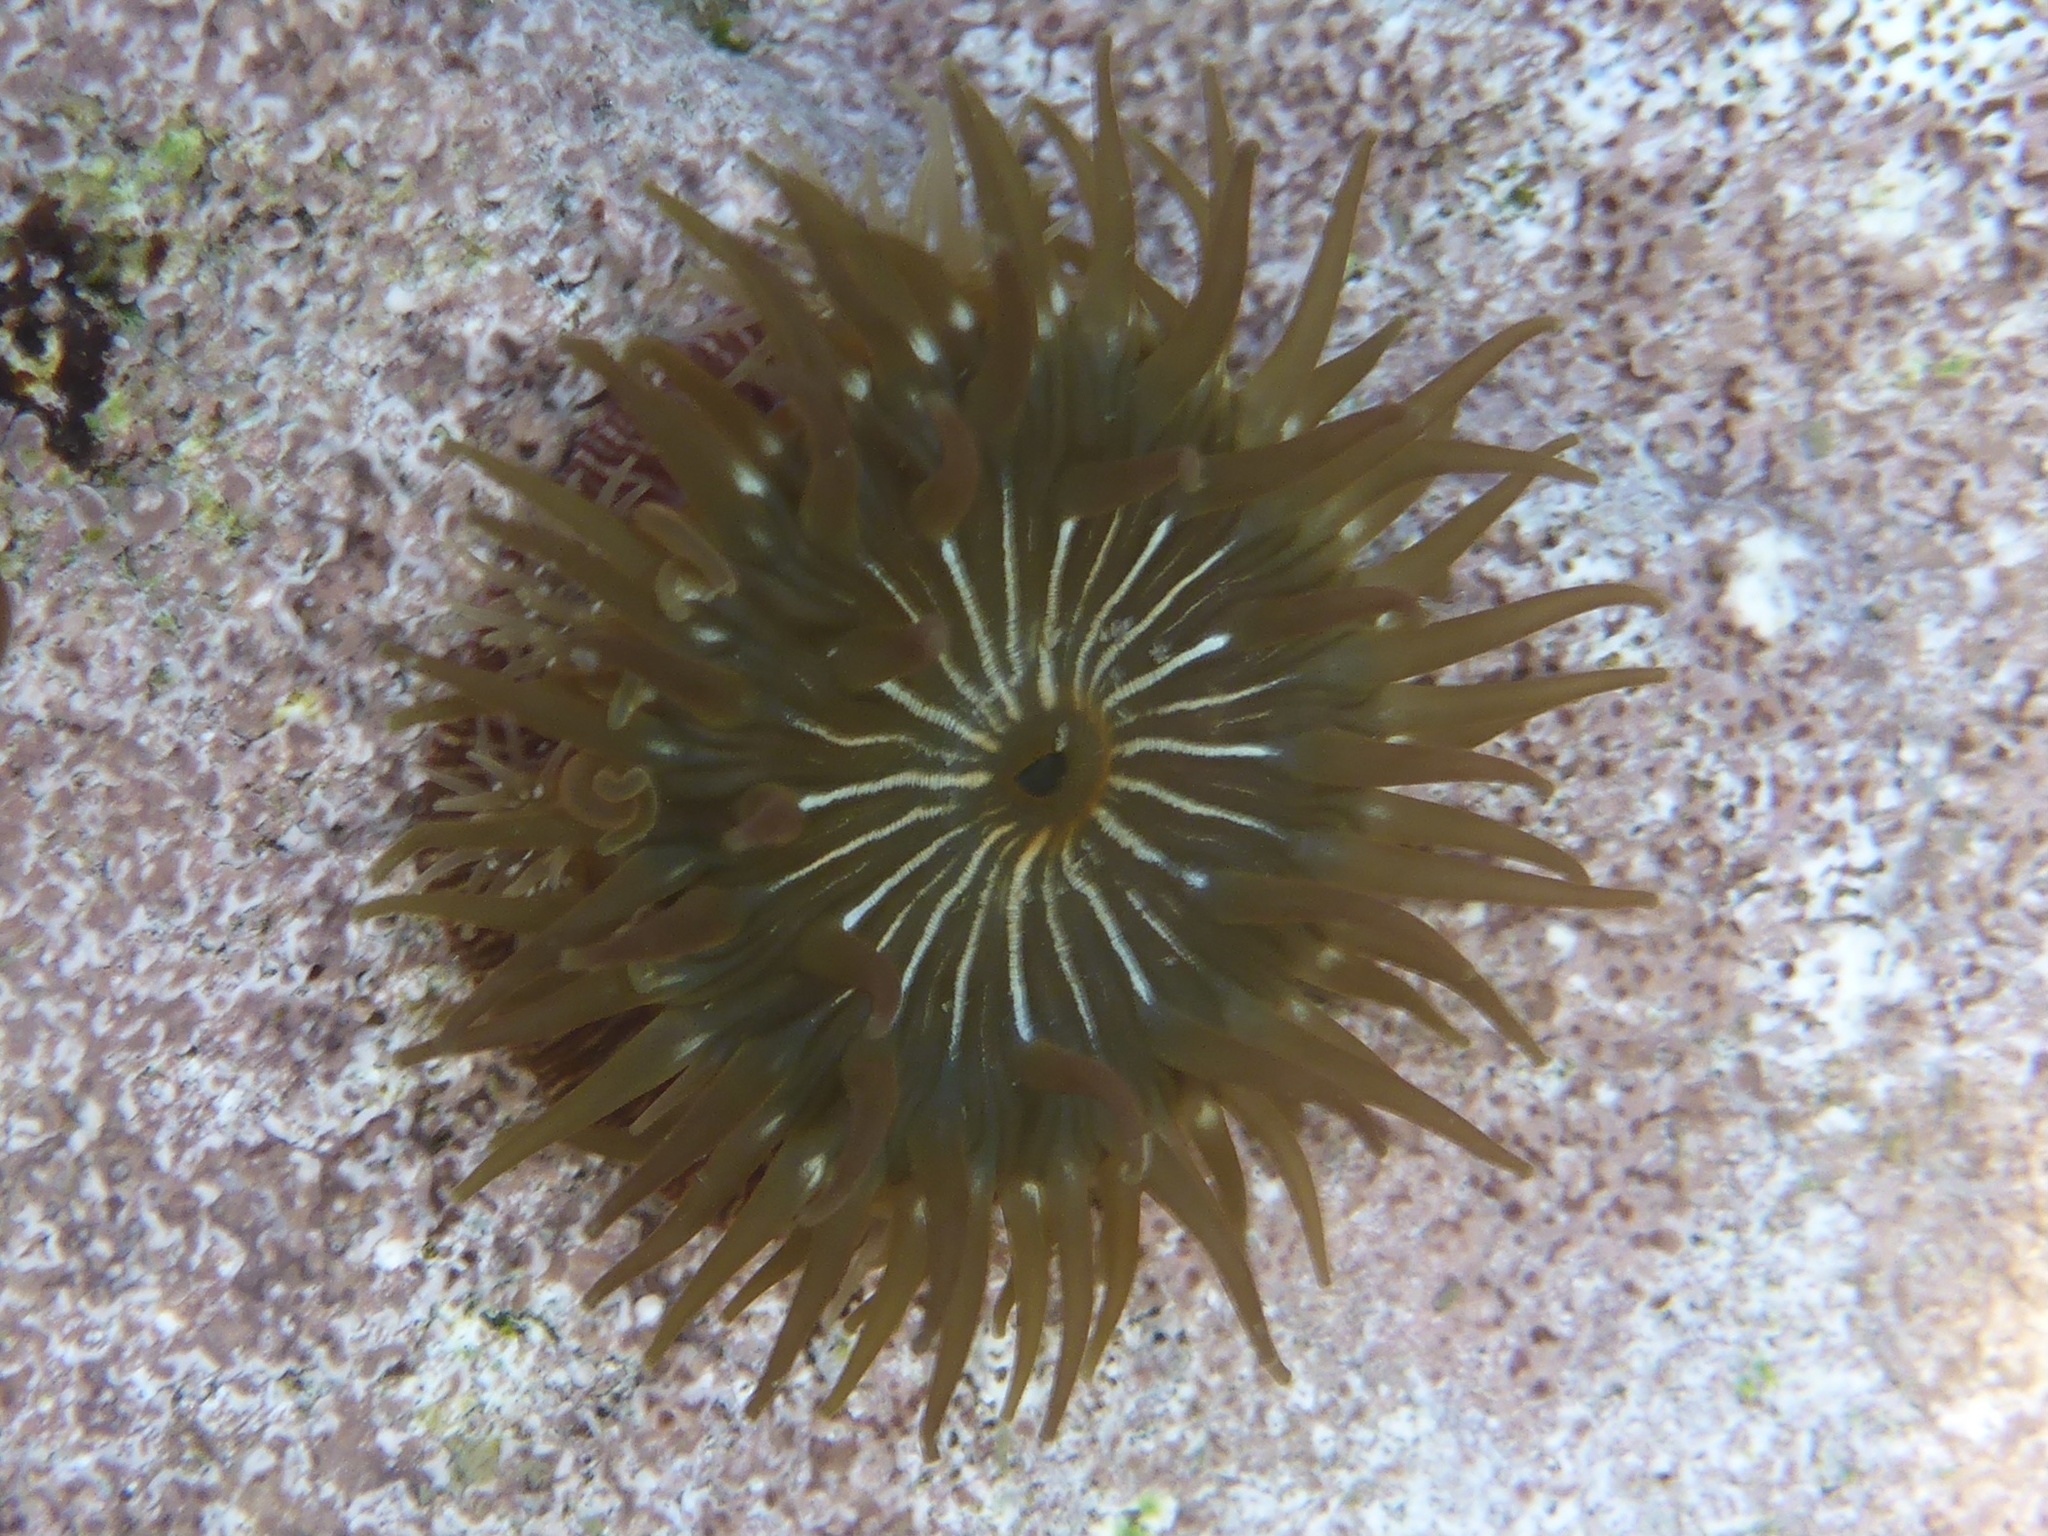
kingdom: Animalia
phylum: Cnidaria
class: Anthozoa
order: Actiniaria
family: Actiniidae
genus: Epiactis
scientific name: Epiactis prolifera
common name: Brooding anemone
